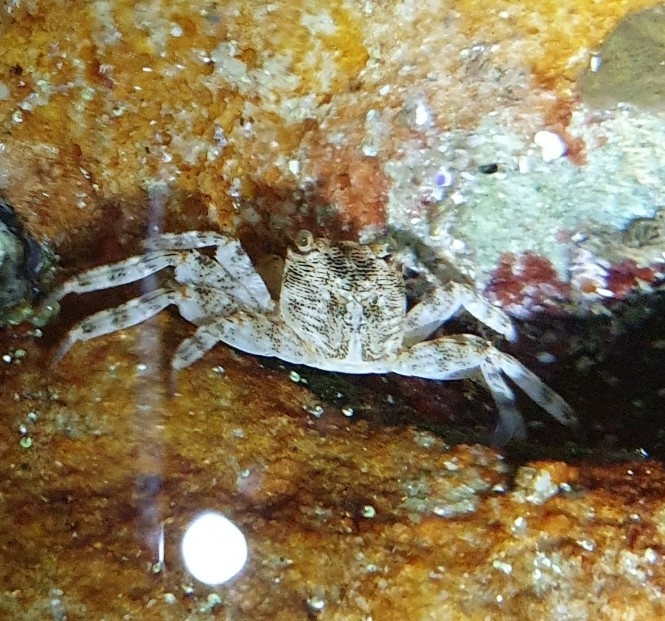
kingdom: Animalia
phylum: Arthropoda
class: Malacostraca
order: Decapoda
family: Grapsidae
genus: Leptograpsus
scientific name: Leptograpsus variegatus
